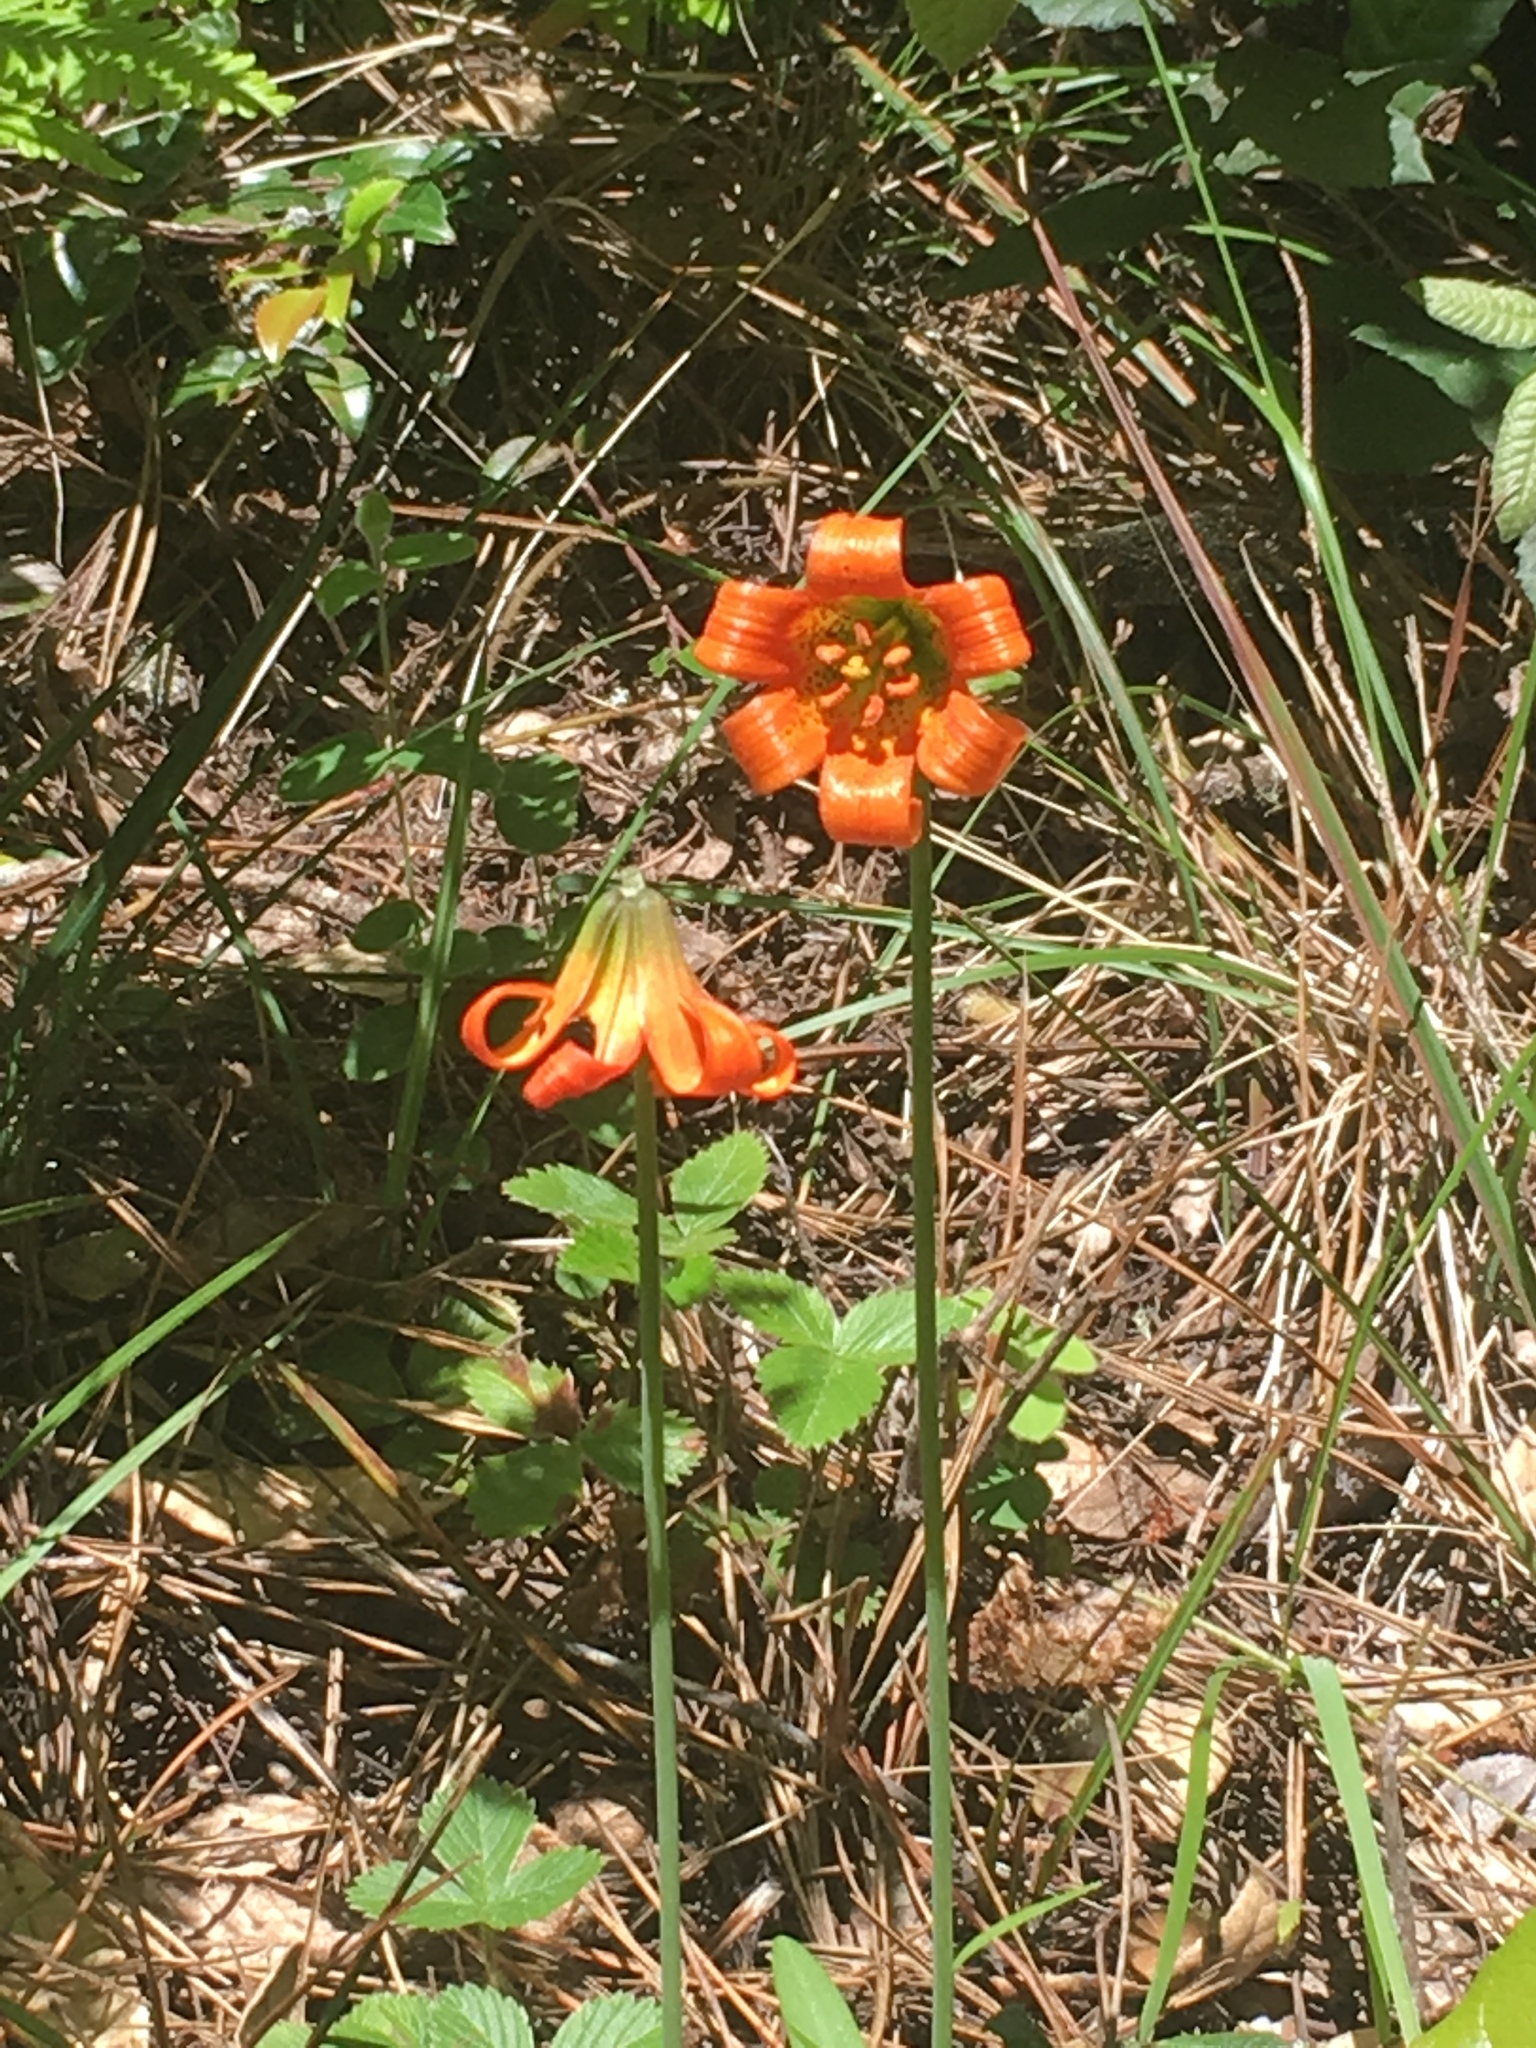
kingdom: Plantae
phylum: Tracheophyta
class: Liliopsida
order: Liliales
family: Liliaceae
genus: Lilium
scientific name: Lilium maritimum
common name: Coastal lily
